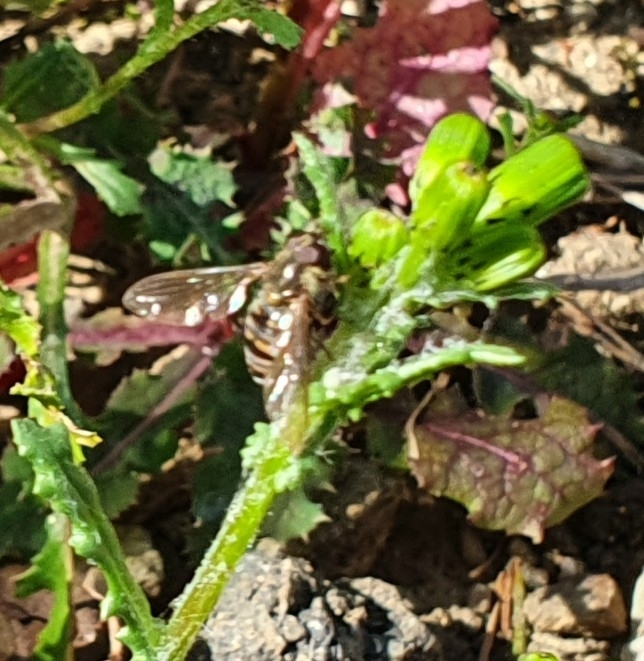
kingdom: Animalia
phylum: Arthropoda
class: Insecta
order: Diptera
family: Syrphidae
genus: Episyrphus
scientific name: Episyrphus balteatus
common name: Marmalade hoverfly
